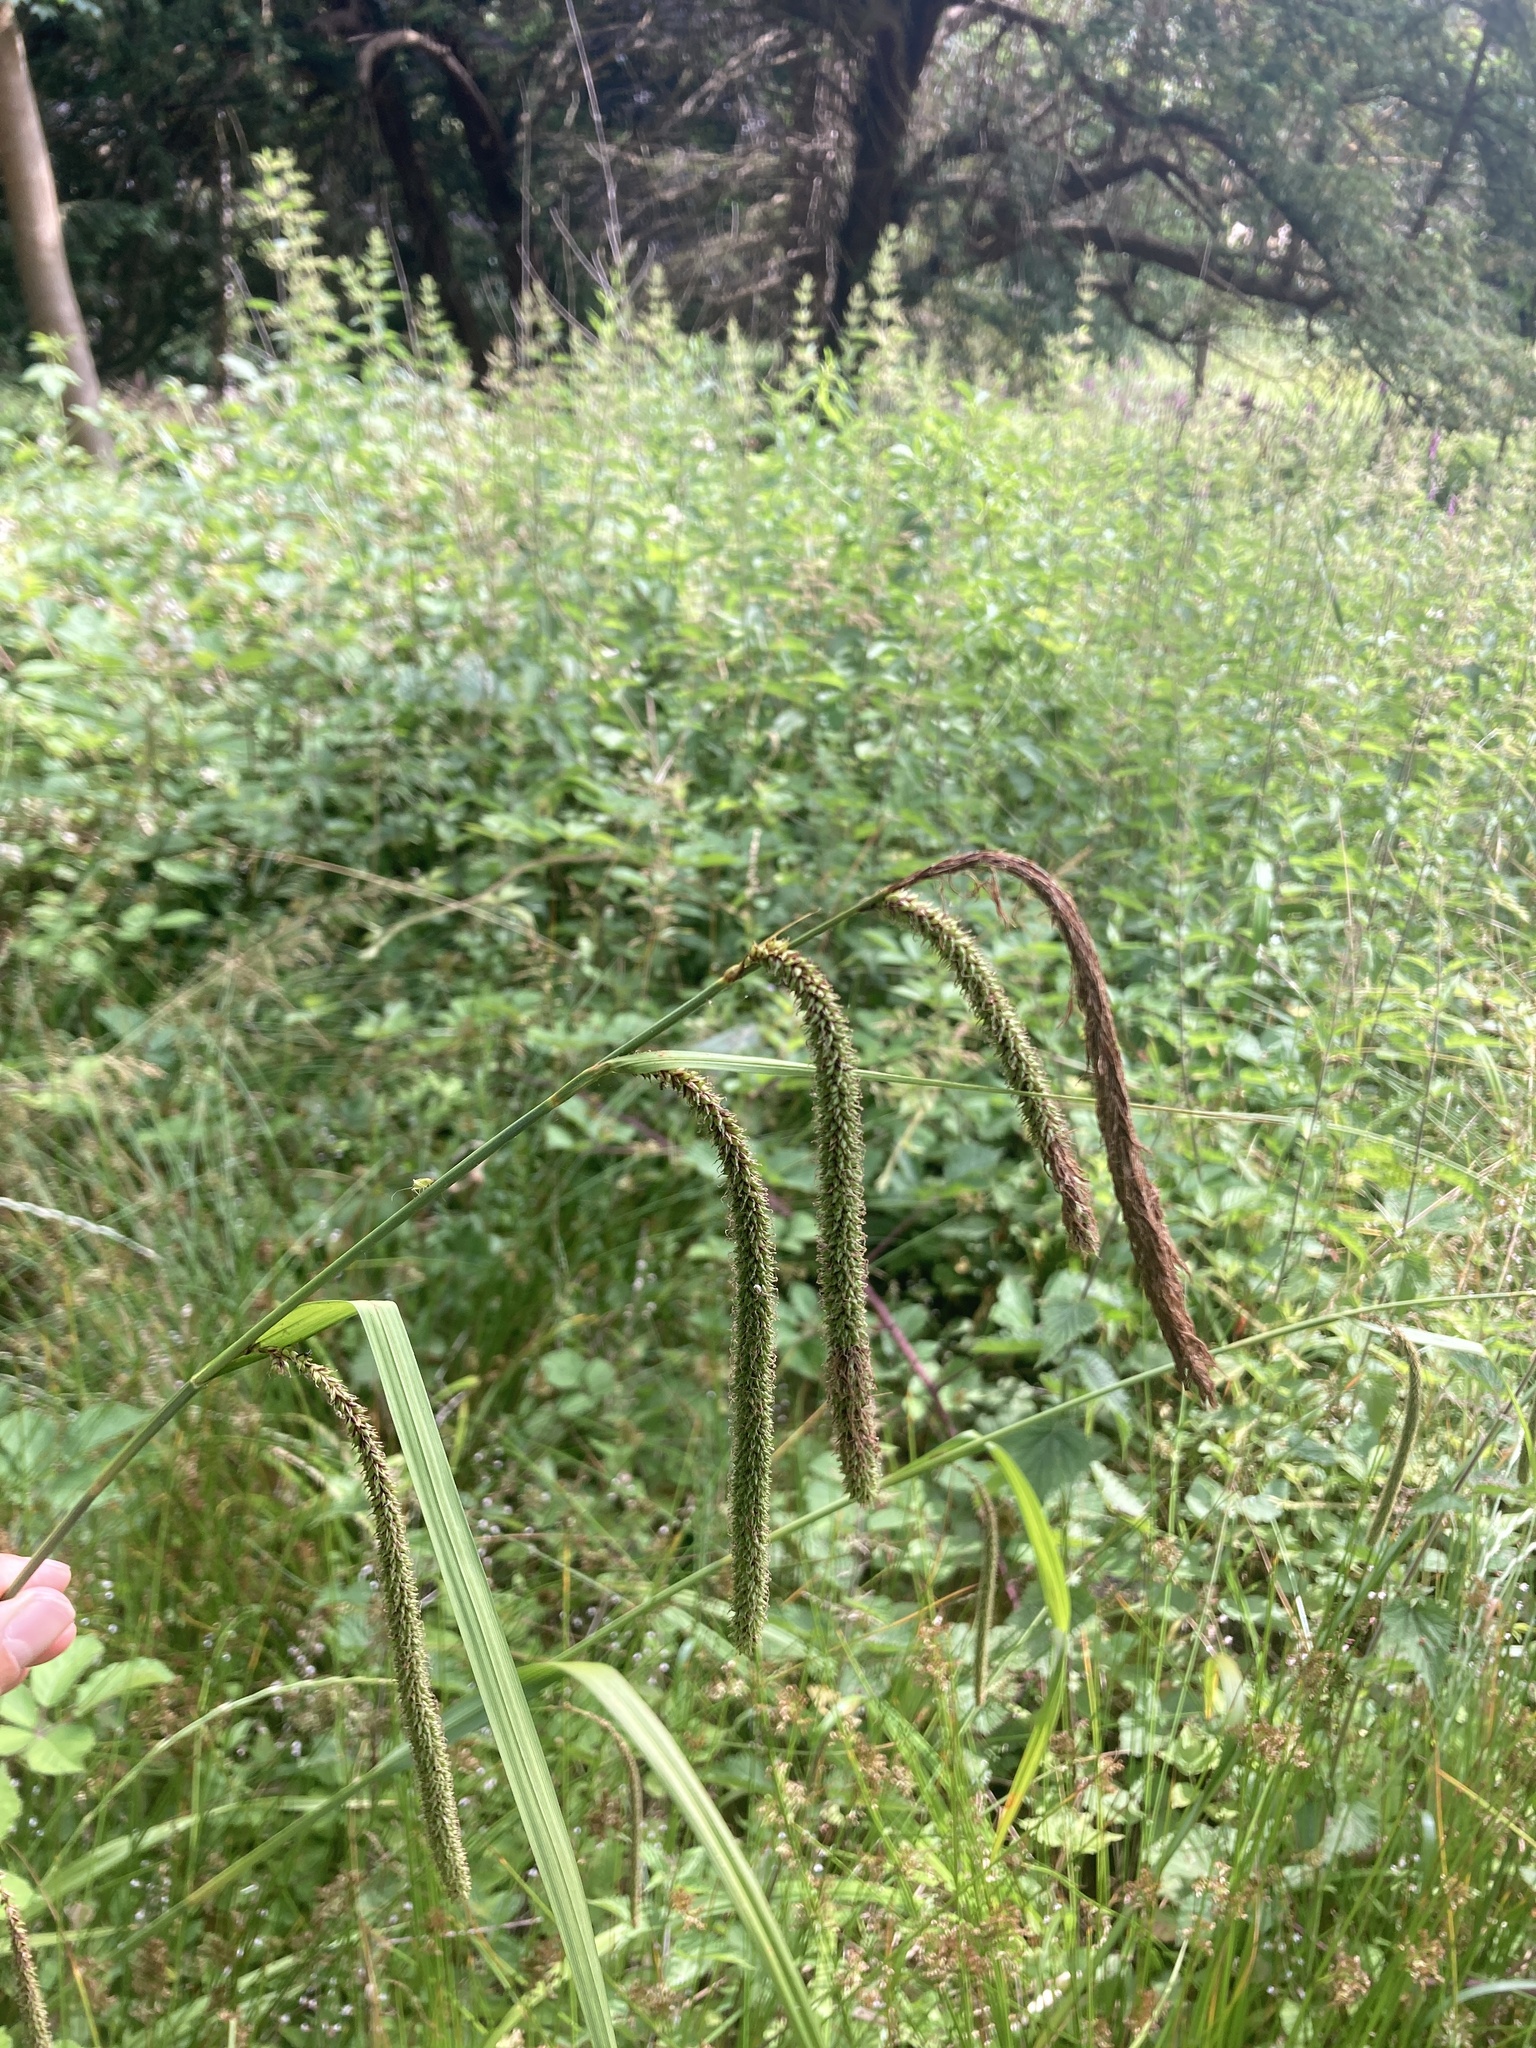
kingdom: Plantae
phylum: Tracheophyta
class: Liliopsida
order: Poales
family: Cyperaceae
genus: Carex
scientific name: Carex pendula
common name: Pendulous sedge
